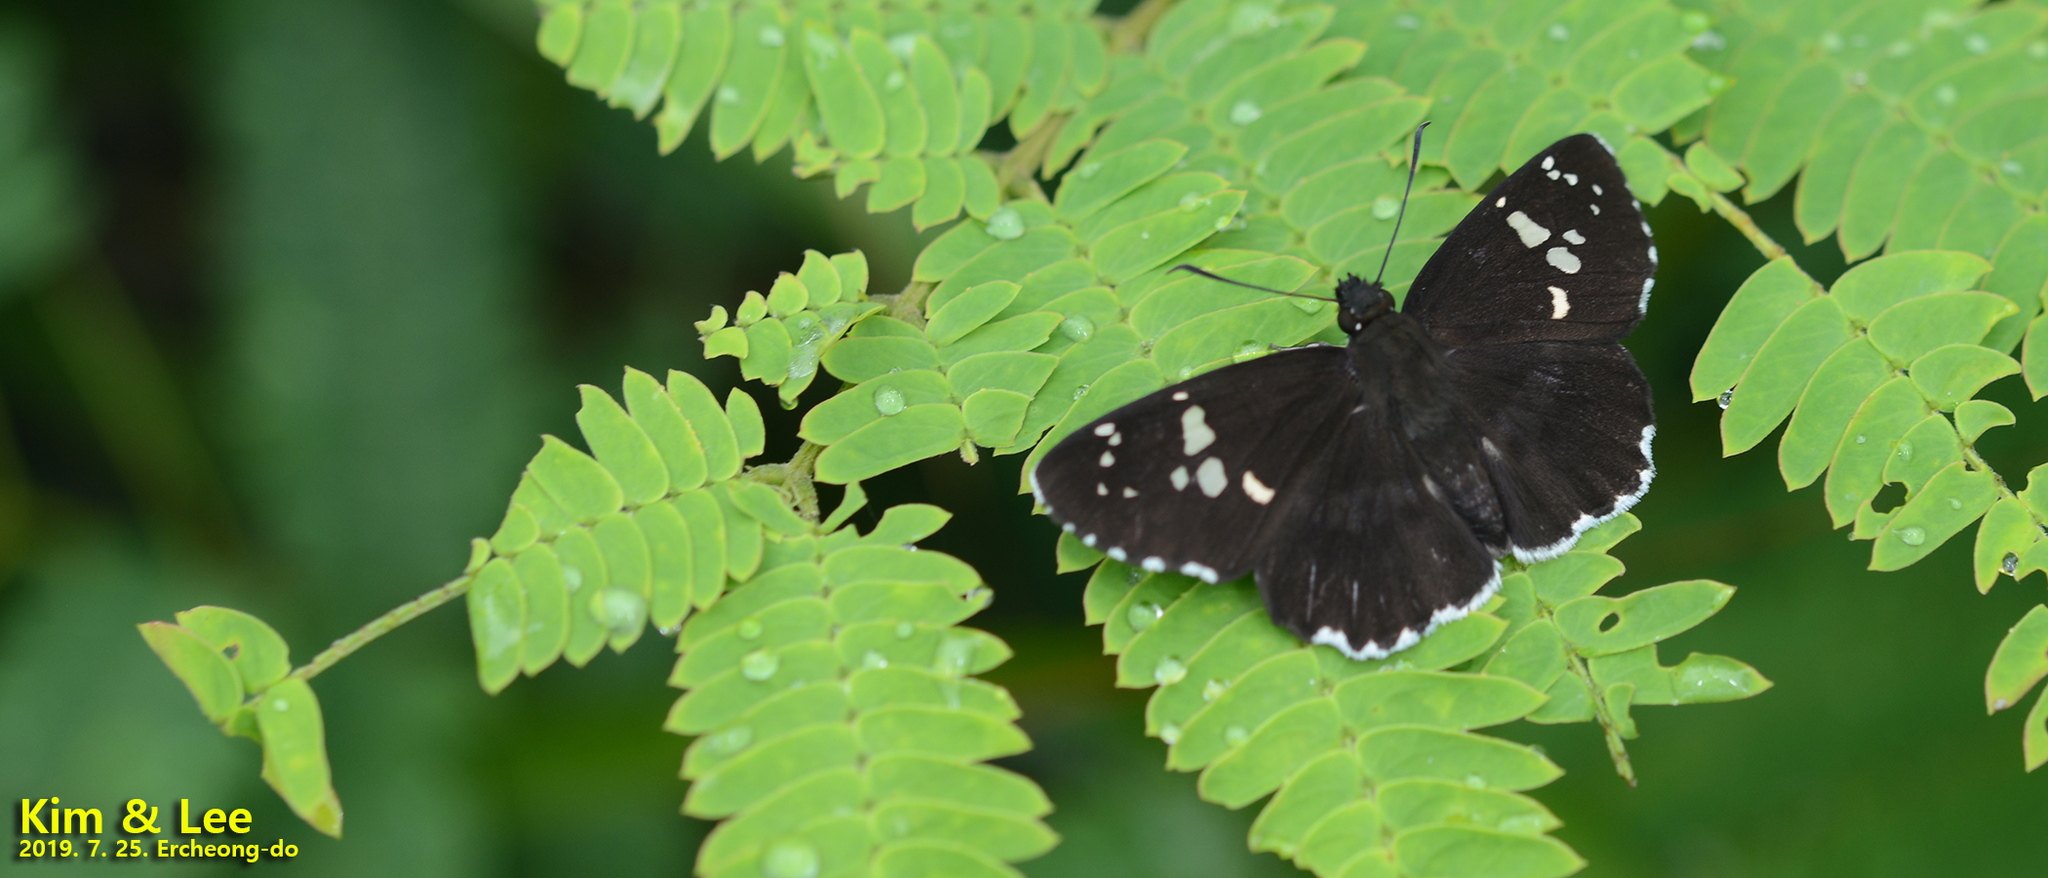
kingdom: Animalia
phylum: Arthropoda
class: Insecta
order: Lepidoptera
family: Hesperiidae
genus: Daimio
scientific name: Daimio tethys
